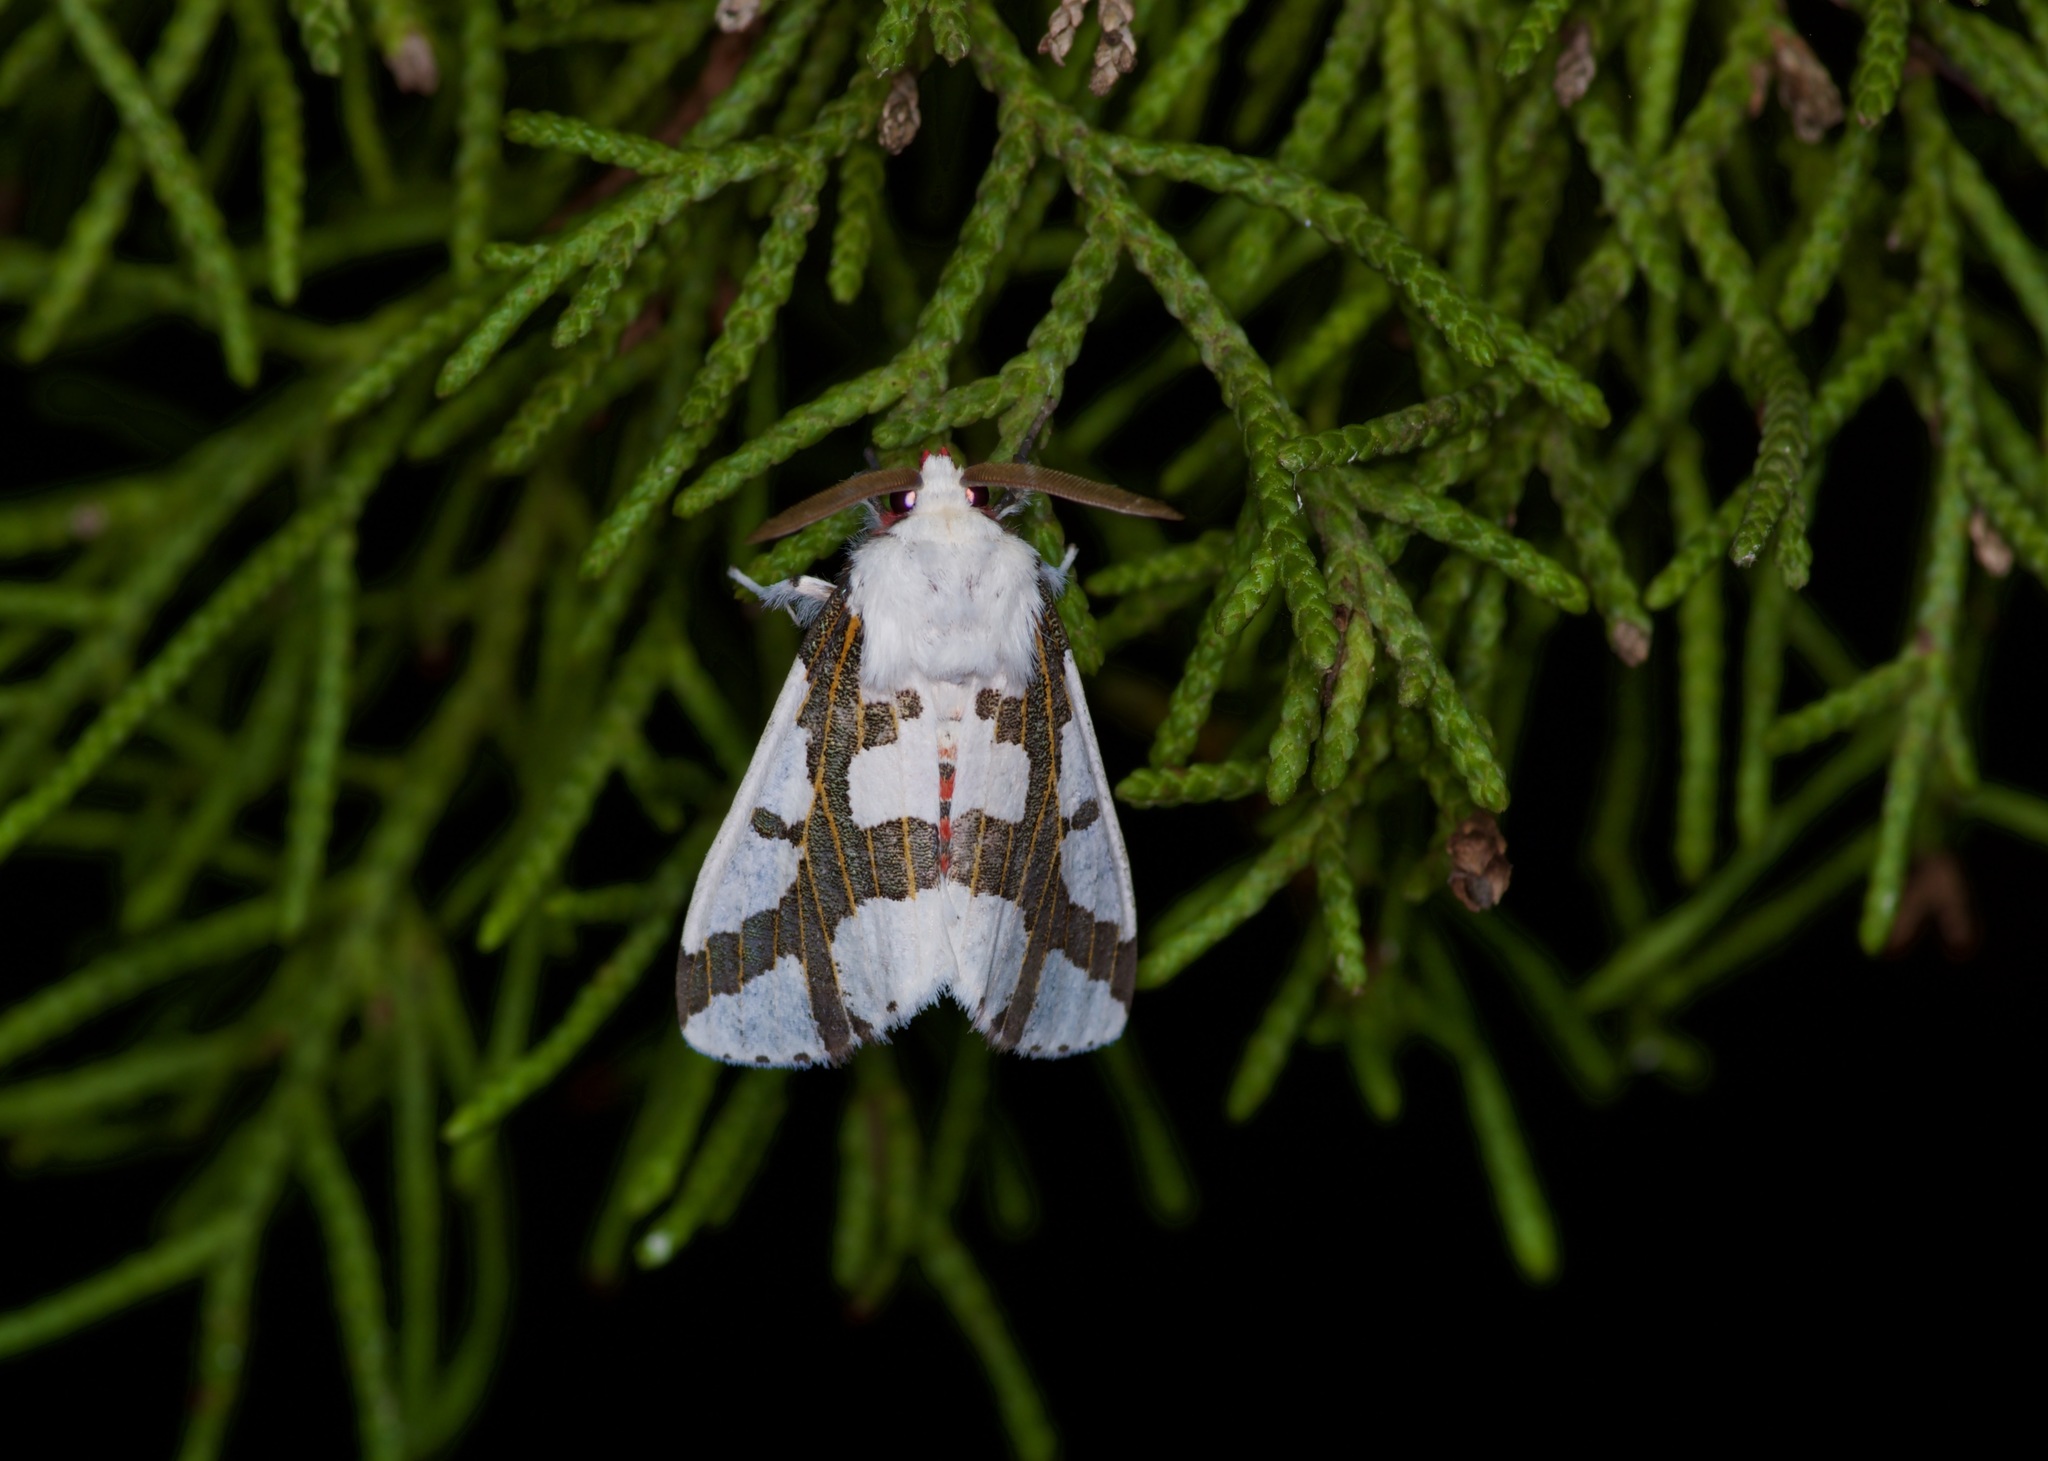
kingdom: Animalia
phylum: Arthropoda
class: Insecta
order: Lepidoptera
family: Erebidae
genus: Euerythra
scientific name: Euerythra phasma
